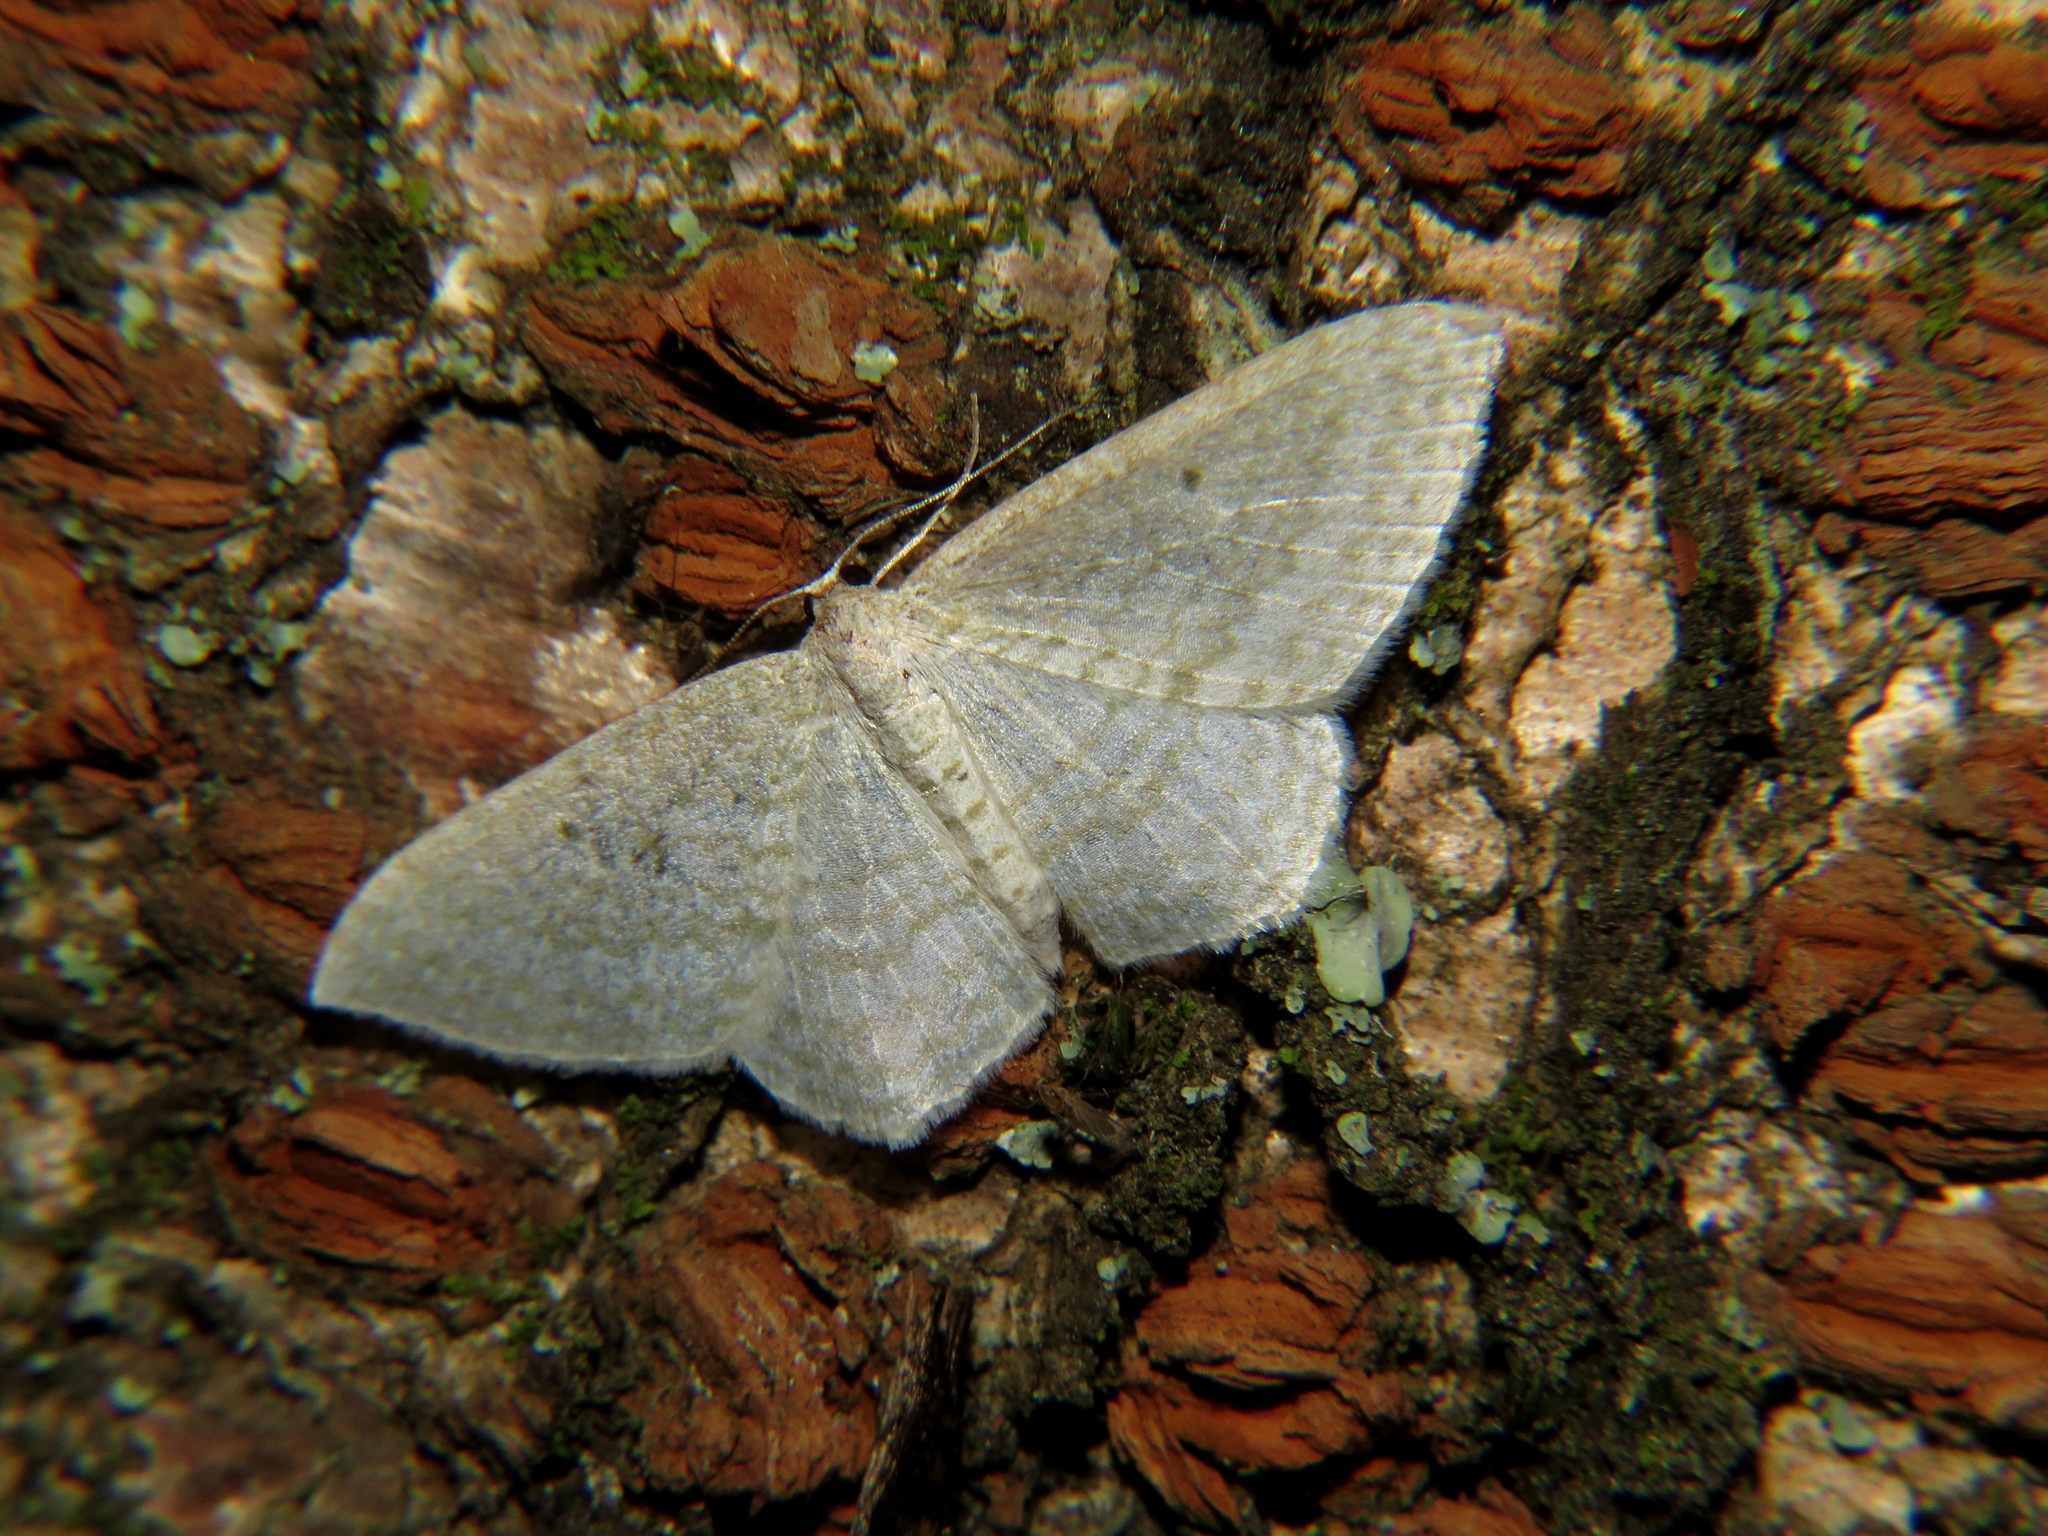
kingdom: Animalia
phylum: Arthropoda
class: Insecta
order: Lepidoptera
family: Geometridae
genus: Poecilasthena
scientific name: Poecilasthena pulchraria
